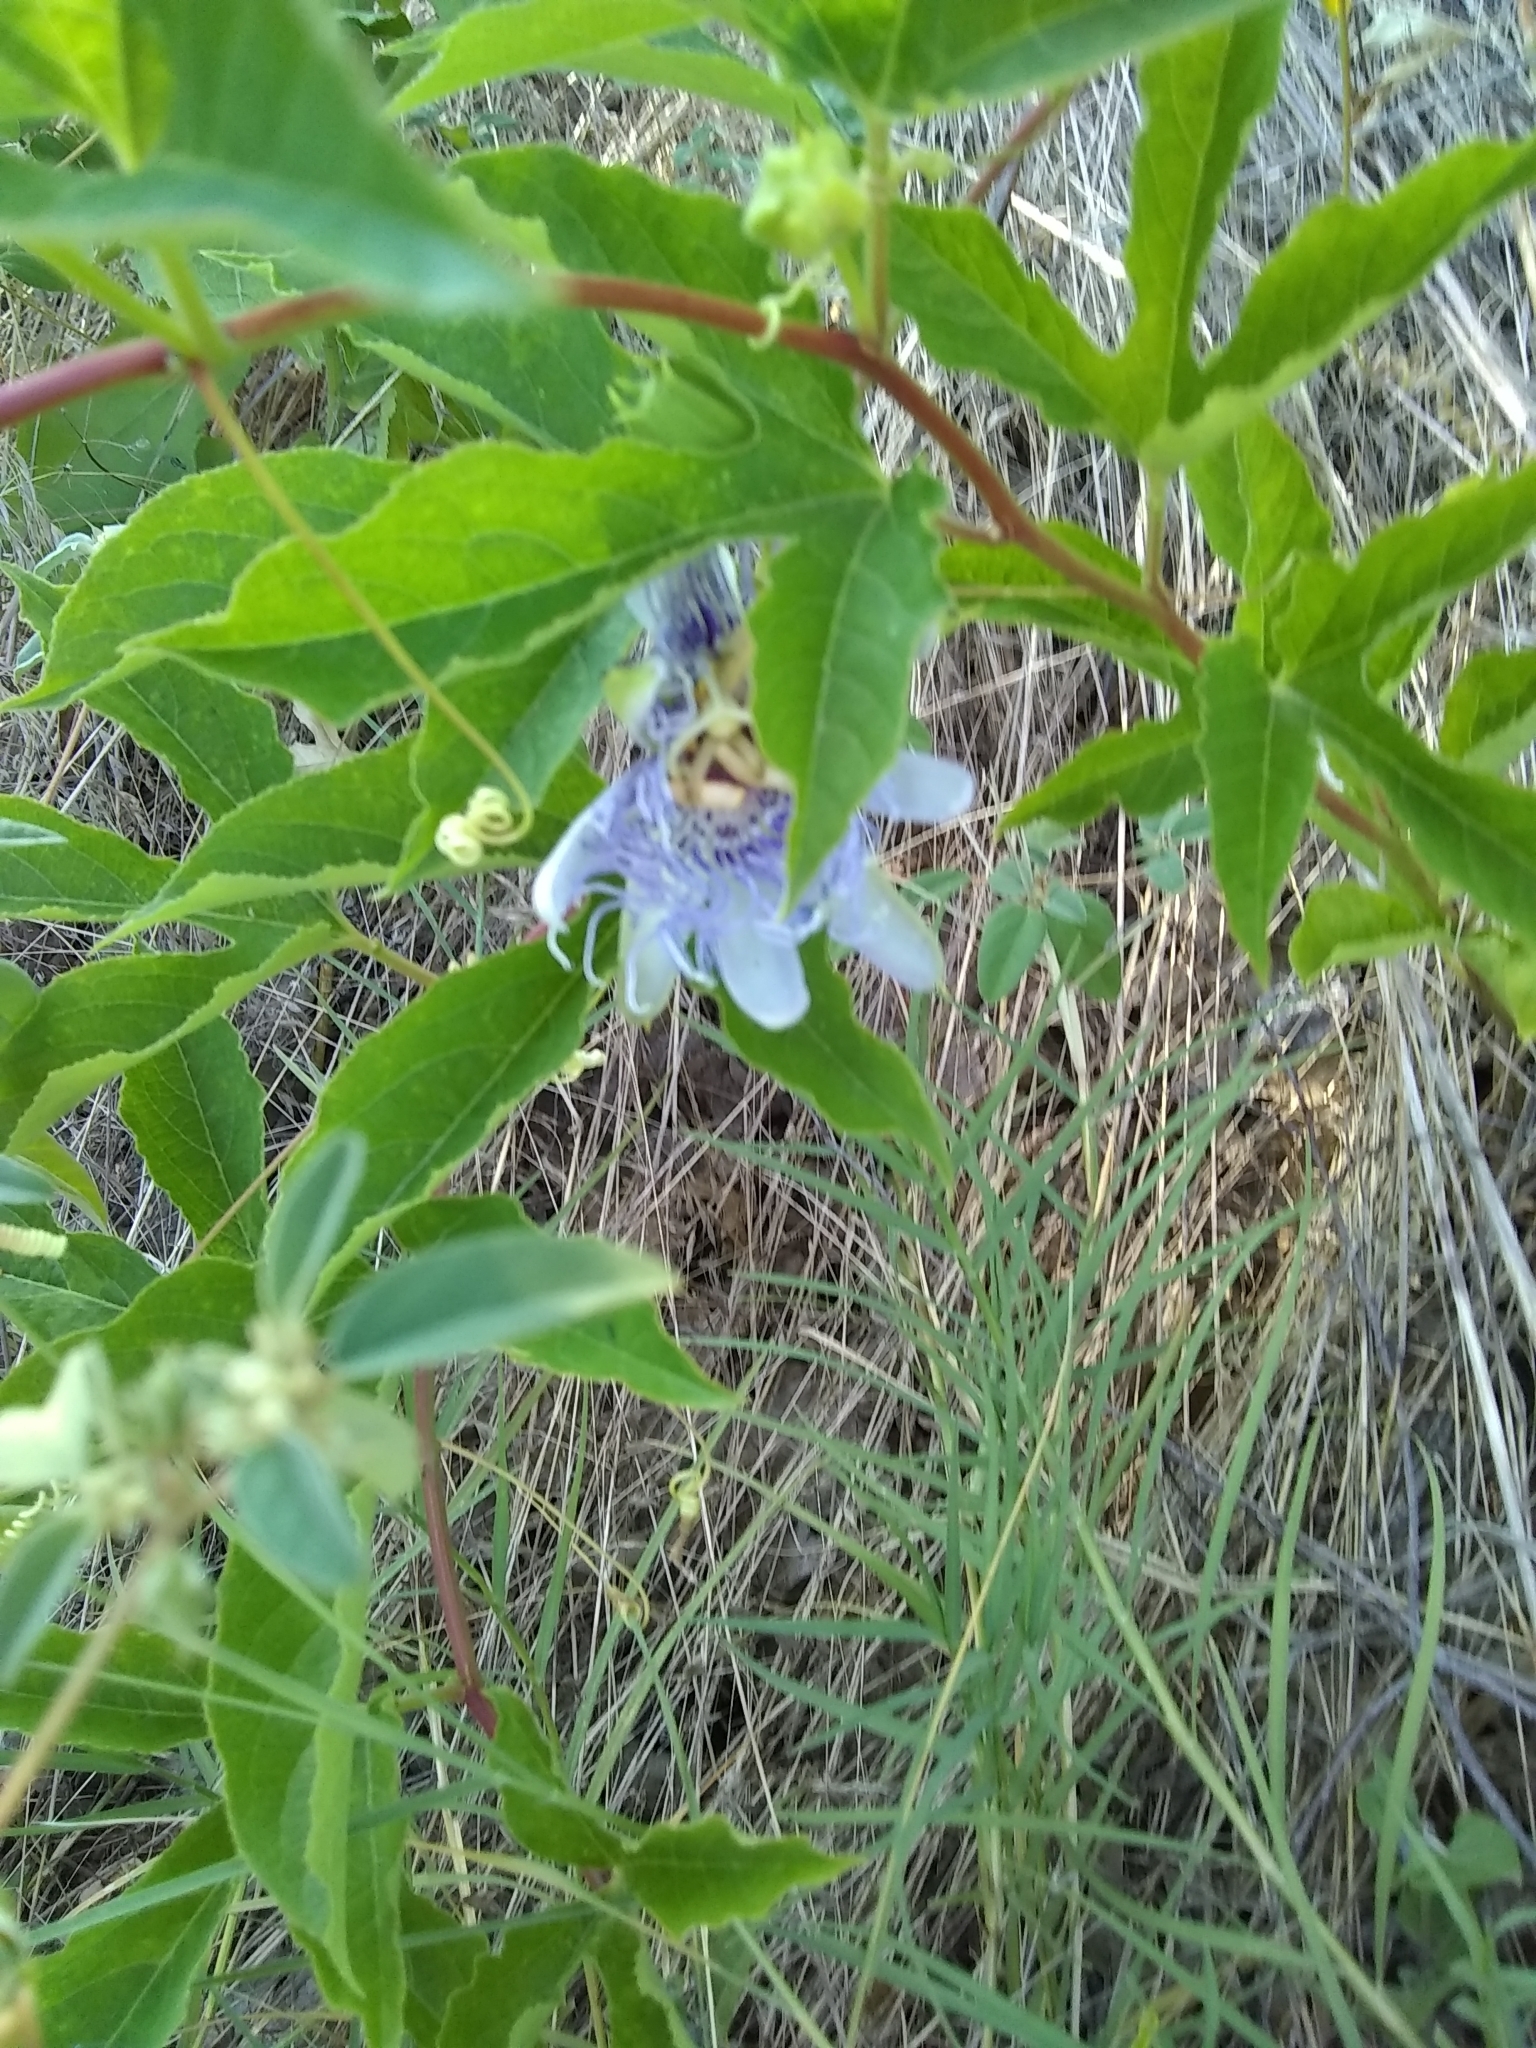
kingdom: Plantae
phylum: Tracheophyta
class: Magnoliopsida
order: Malpighiales
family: Passifloraceae
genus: Passiflora
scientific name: Passiflora incarnata
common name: Apricot-vine
